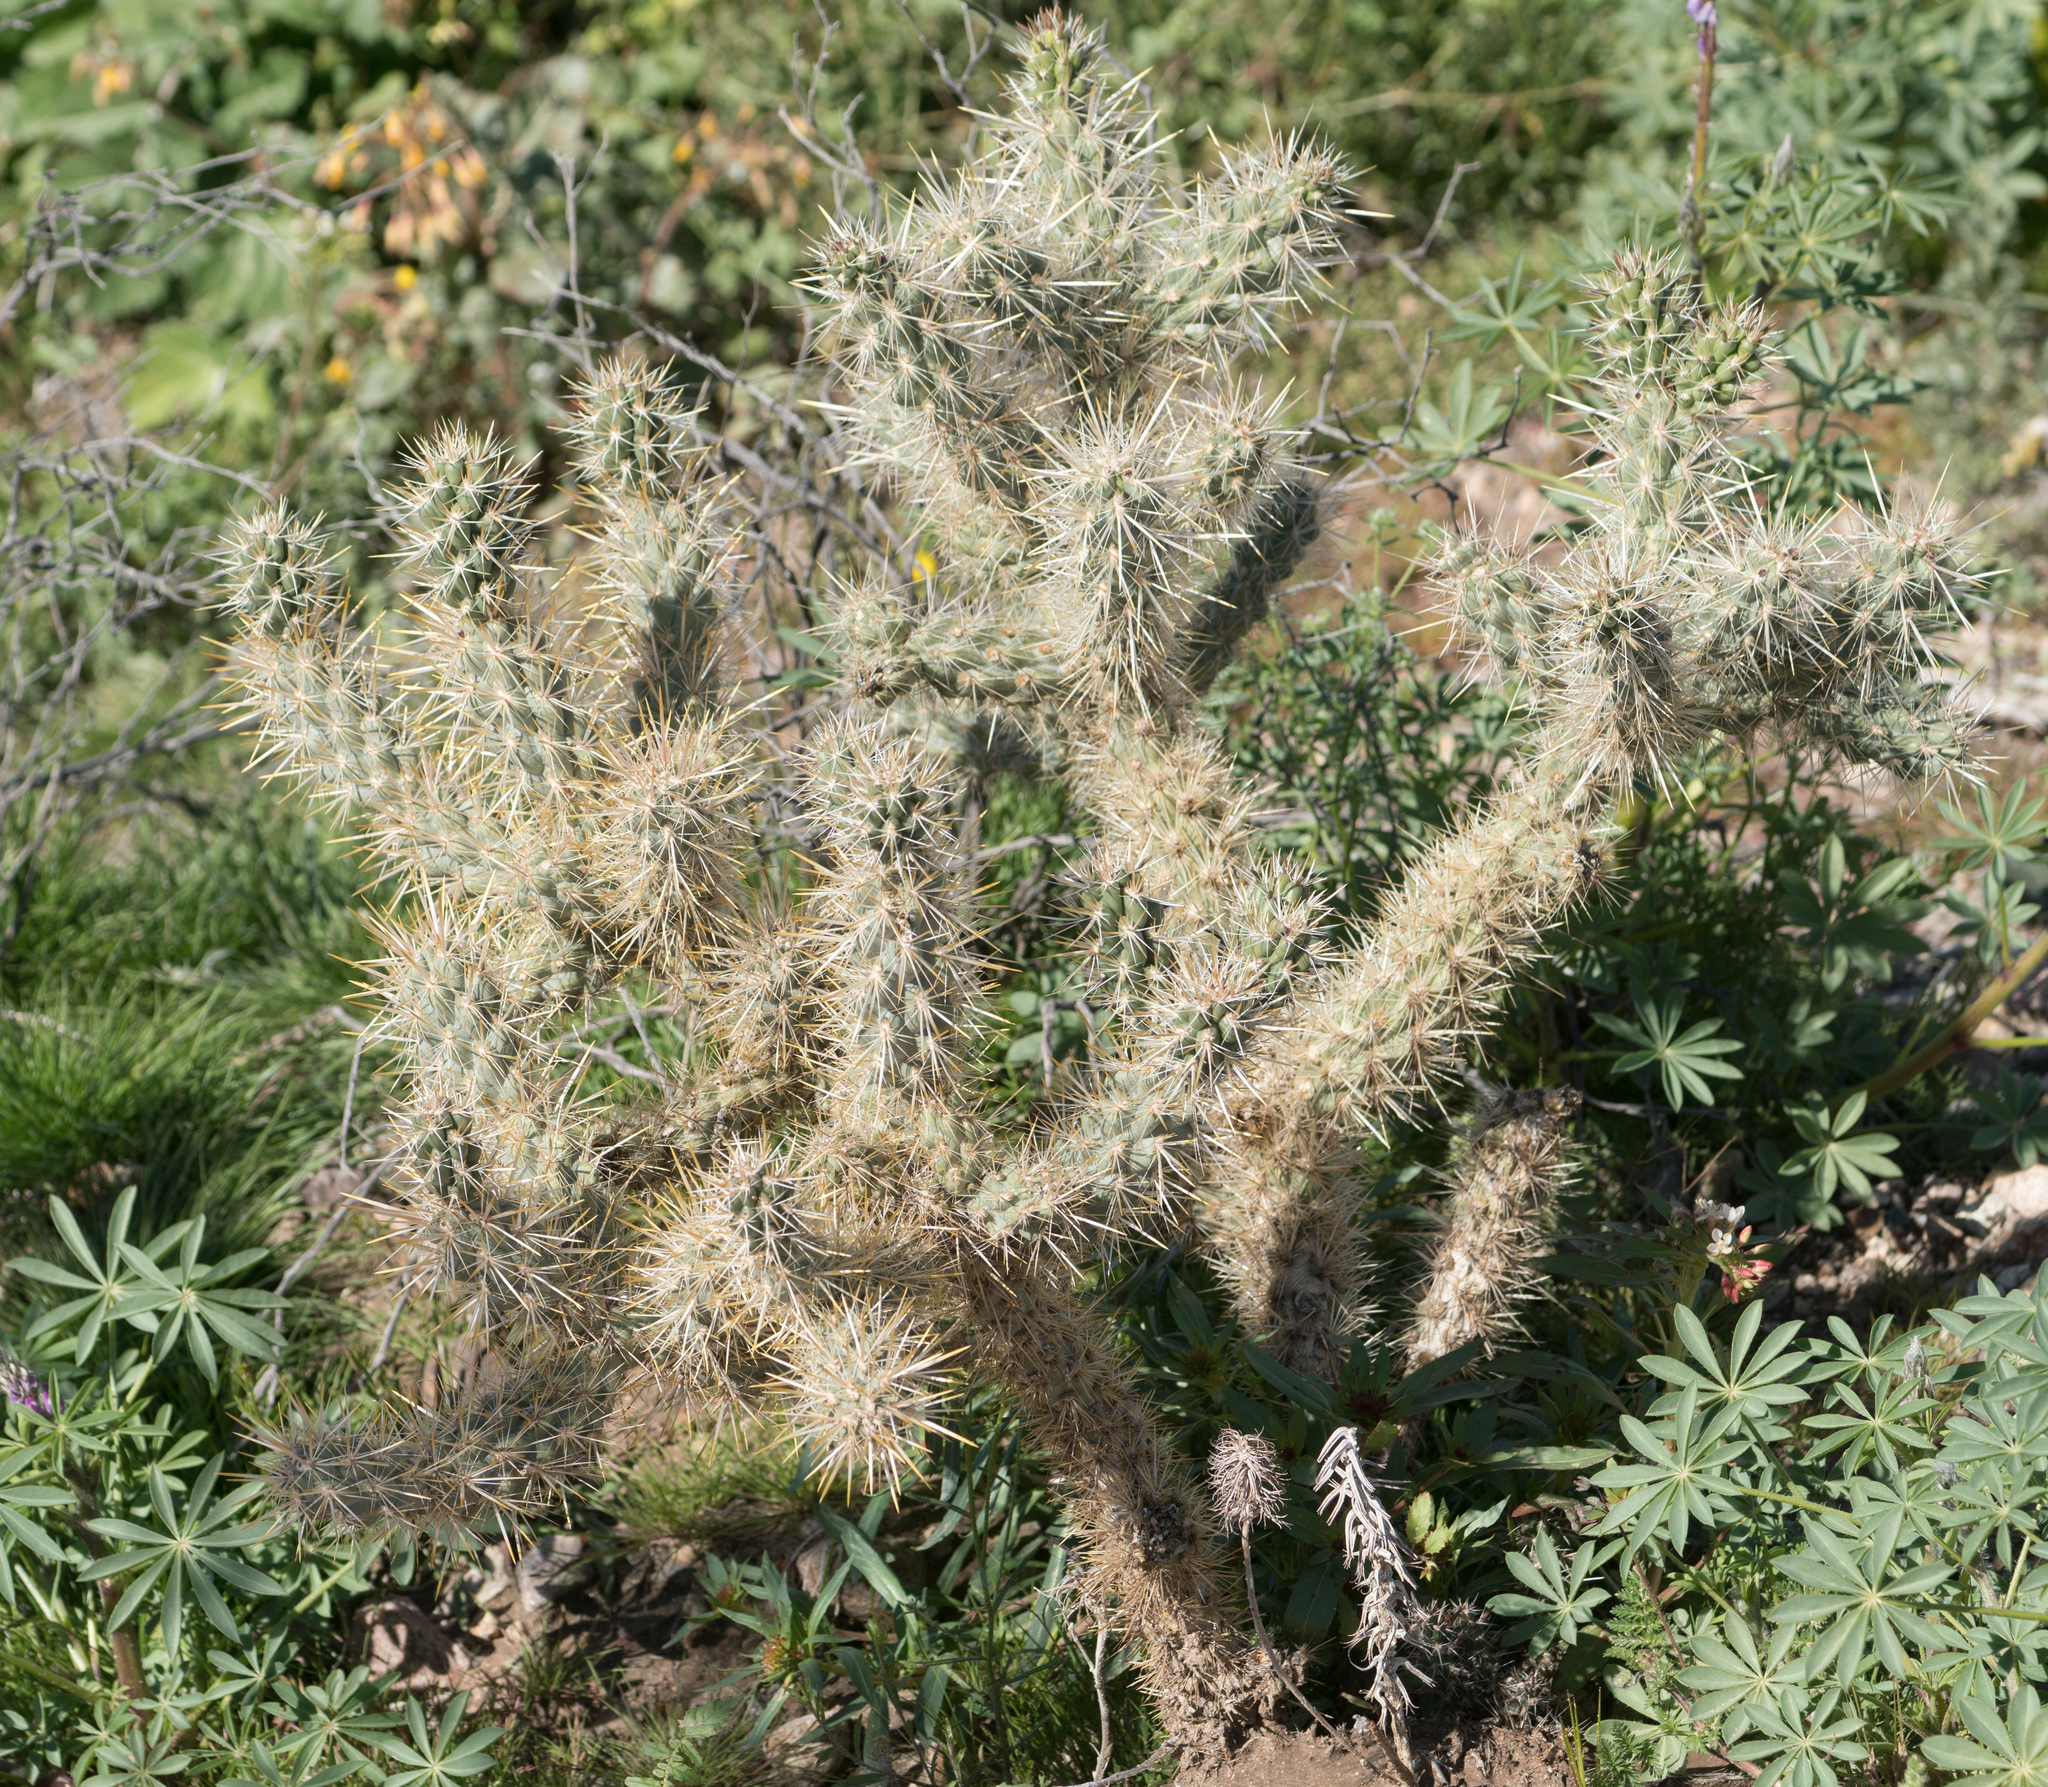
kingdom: Plantae
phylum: Tracheophyta
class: Magnoliopsida
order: Caryophyllales
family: Cactaceae
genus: Cylindropuntia
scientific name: Cylindropuntia echinocarpa
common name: Ground cholla
